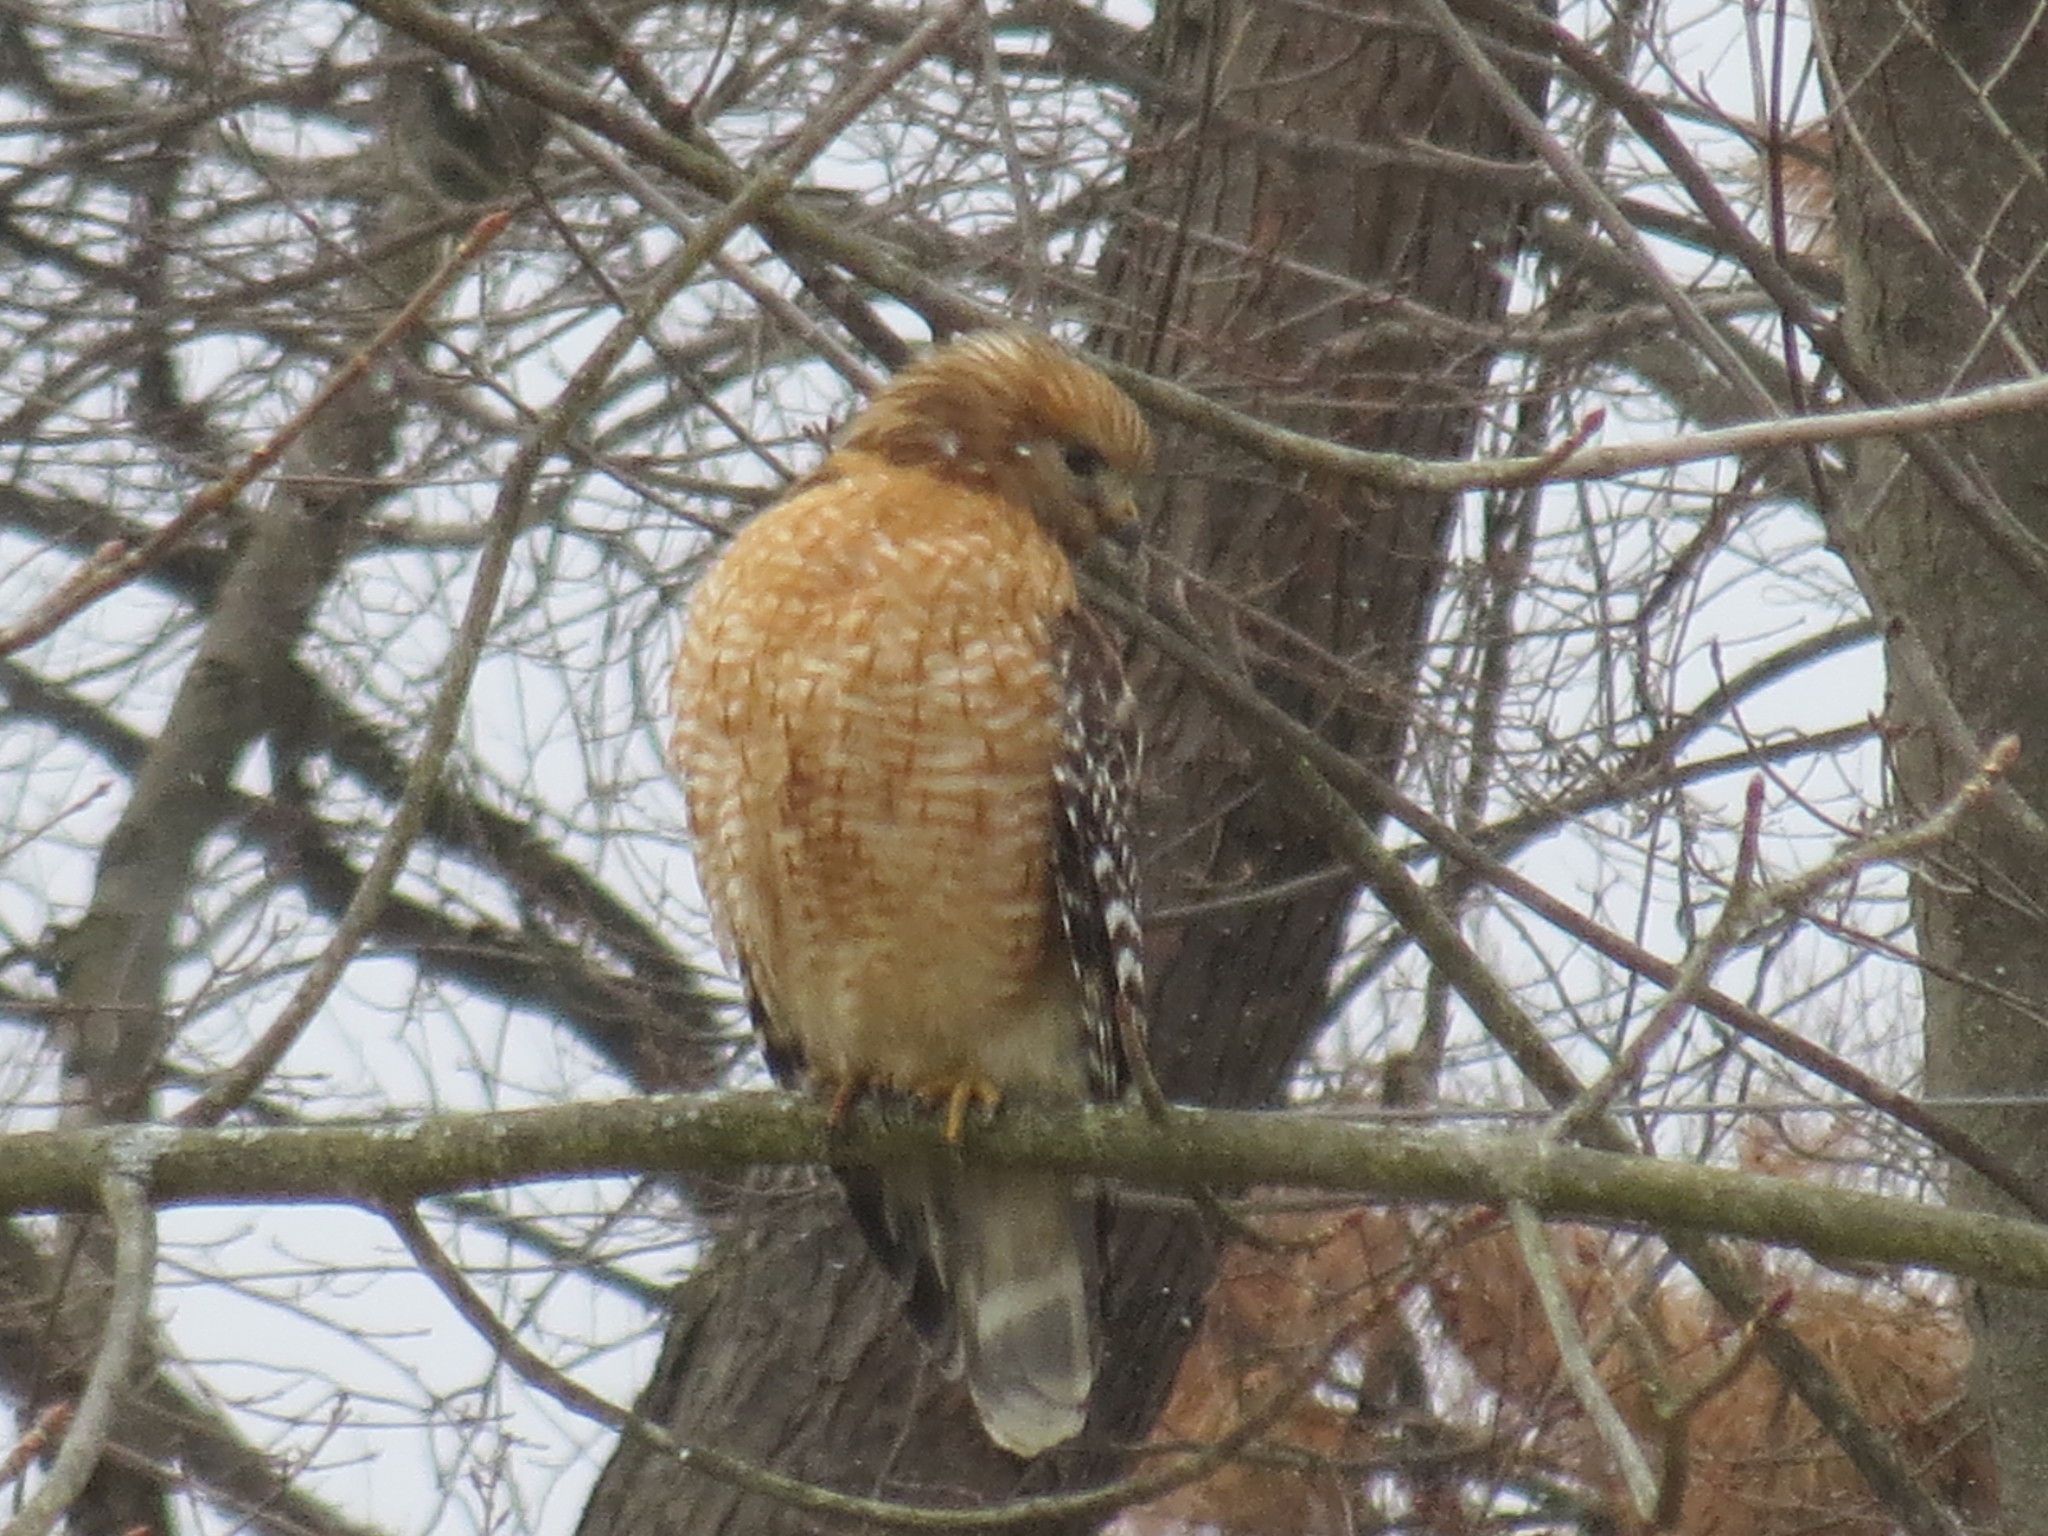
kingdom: Animalia
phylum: Chordata
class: Aves
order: Accipitriformes
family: Accipitridae
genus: Buteo
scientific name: Buteo lineatus
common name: Red-shouldered hawk
